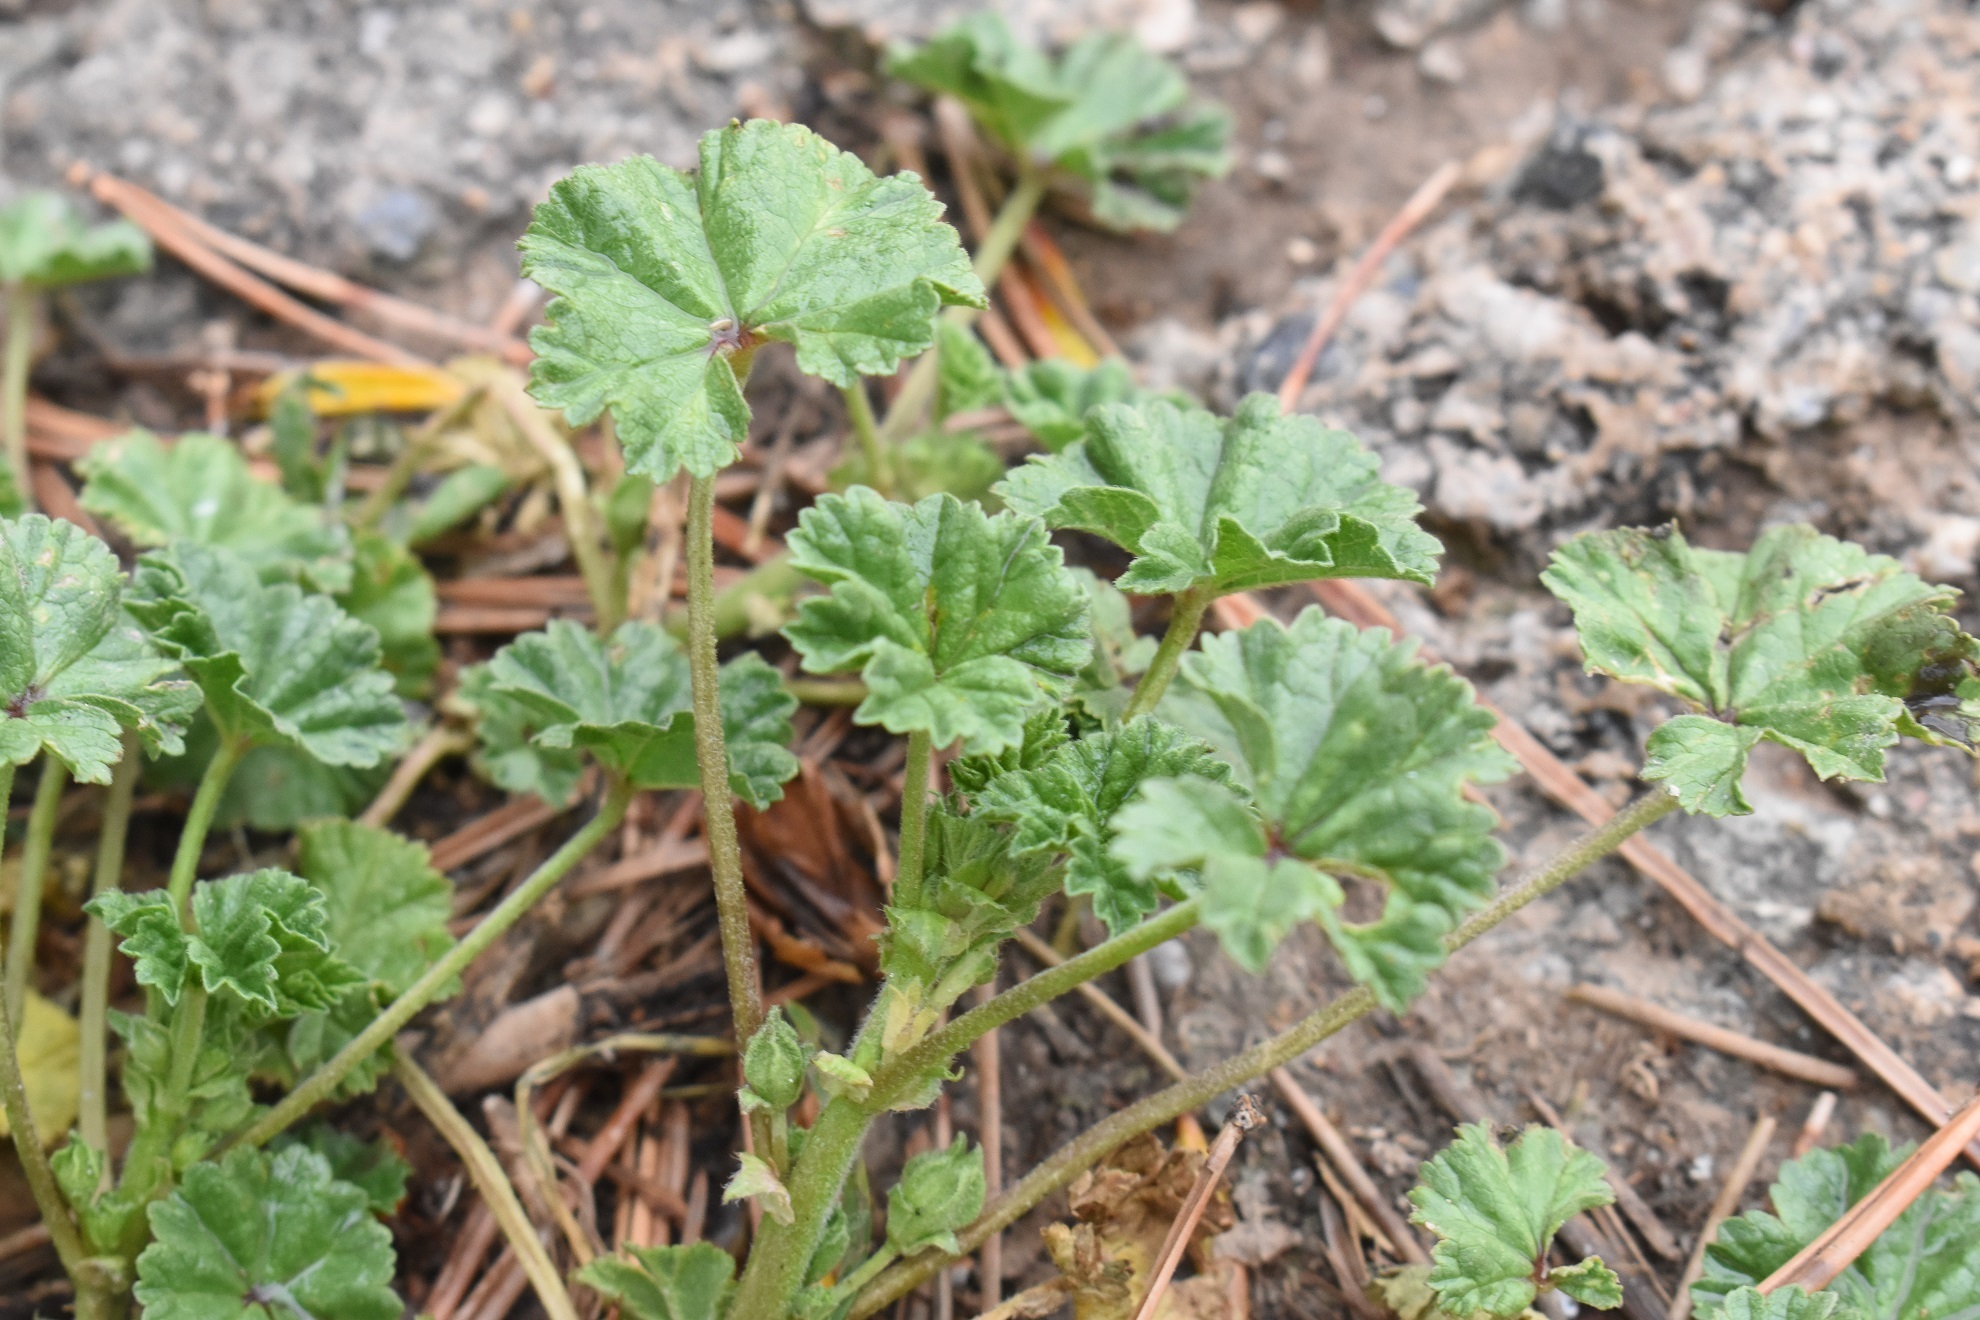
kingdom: Plantae
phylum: Tracheophyta
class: Magnoliopsida
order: Malvales
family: Malvaceae
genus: Malva
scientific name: Malva neglecta
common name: Common mallow
